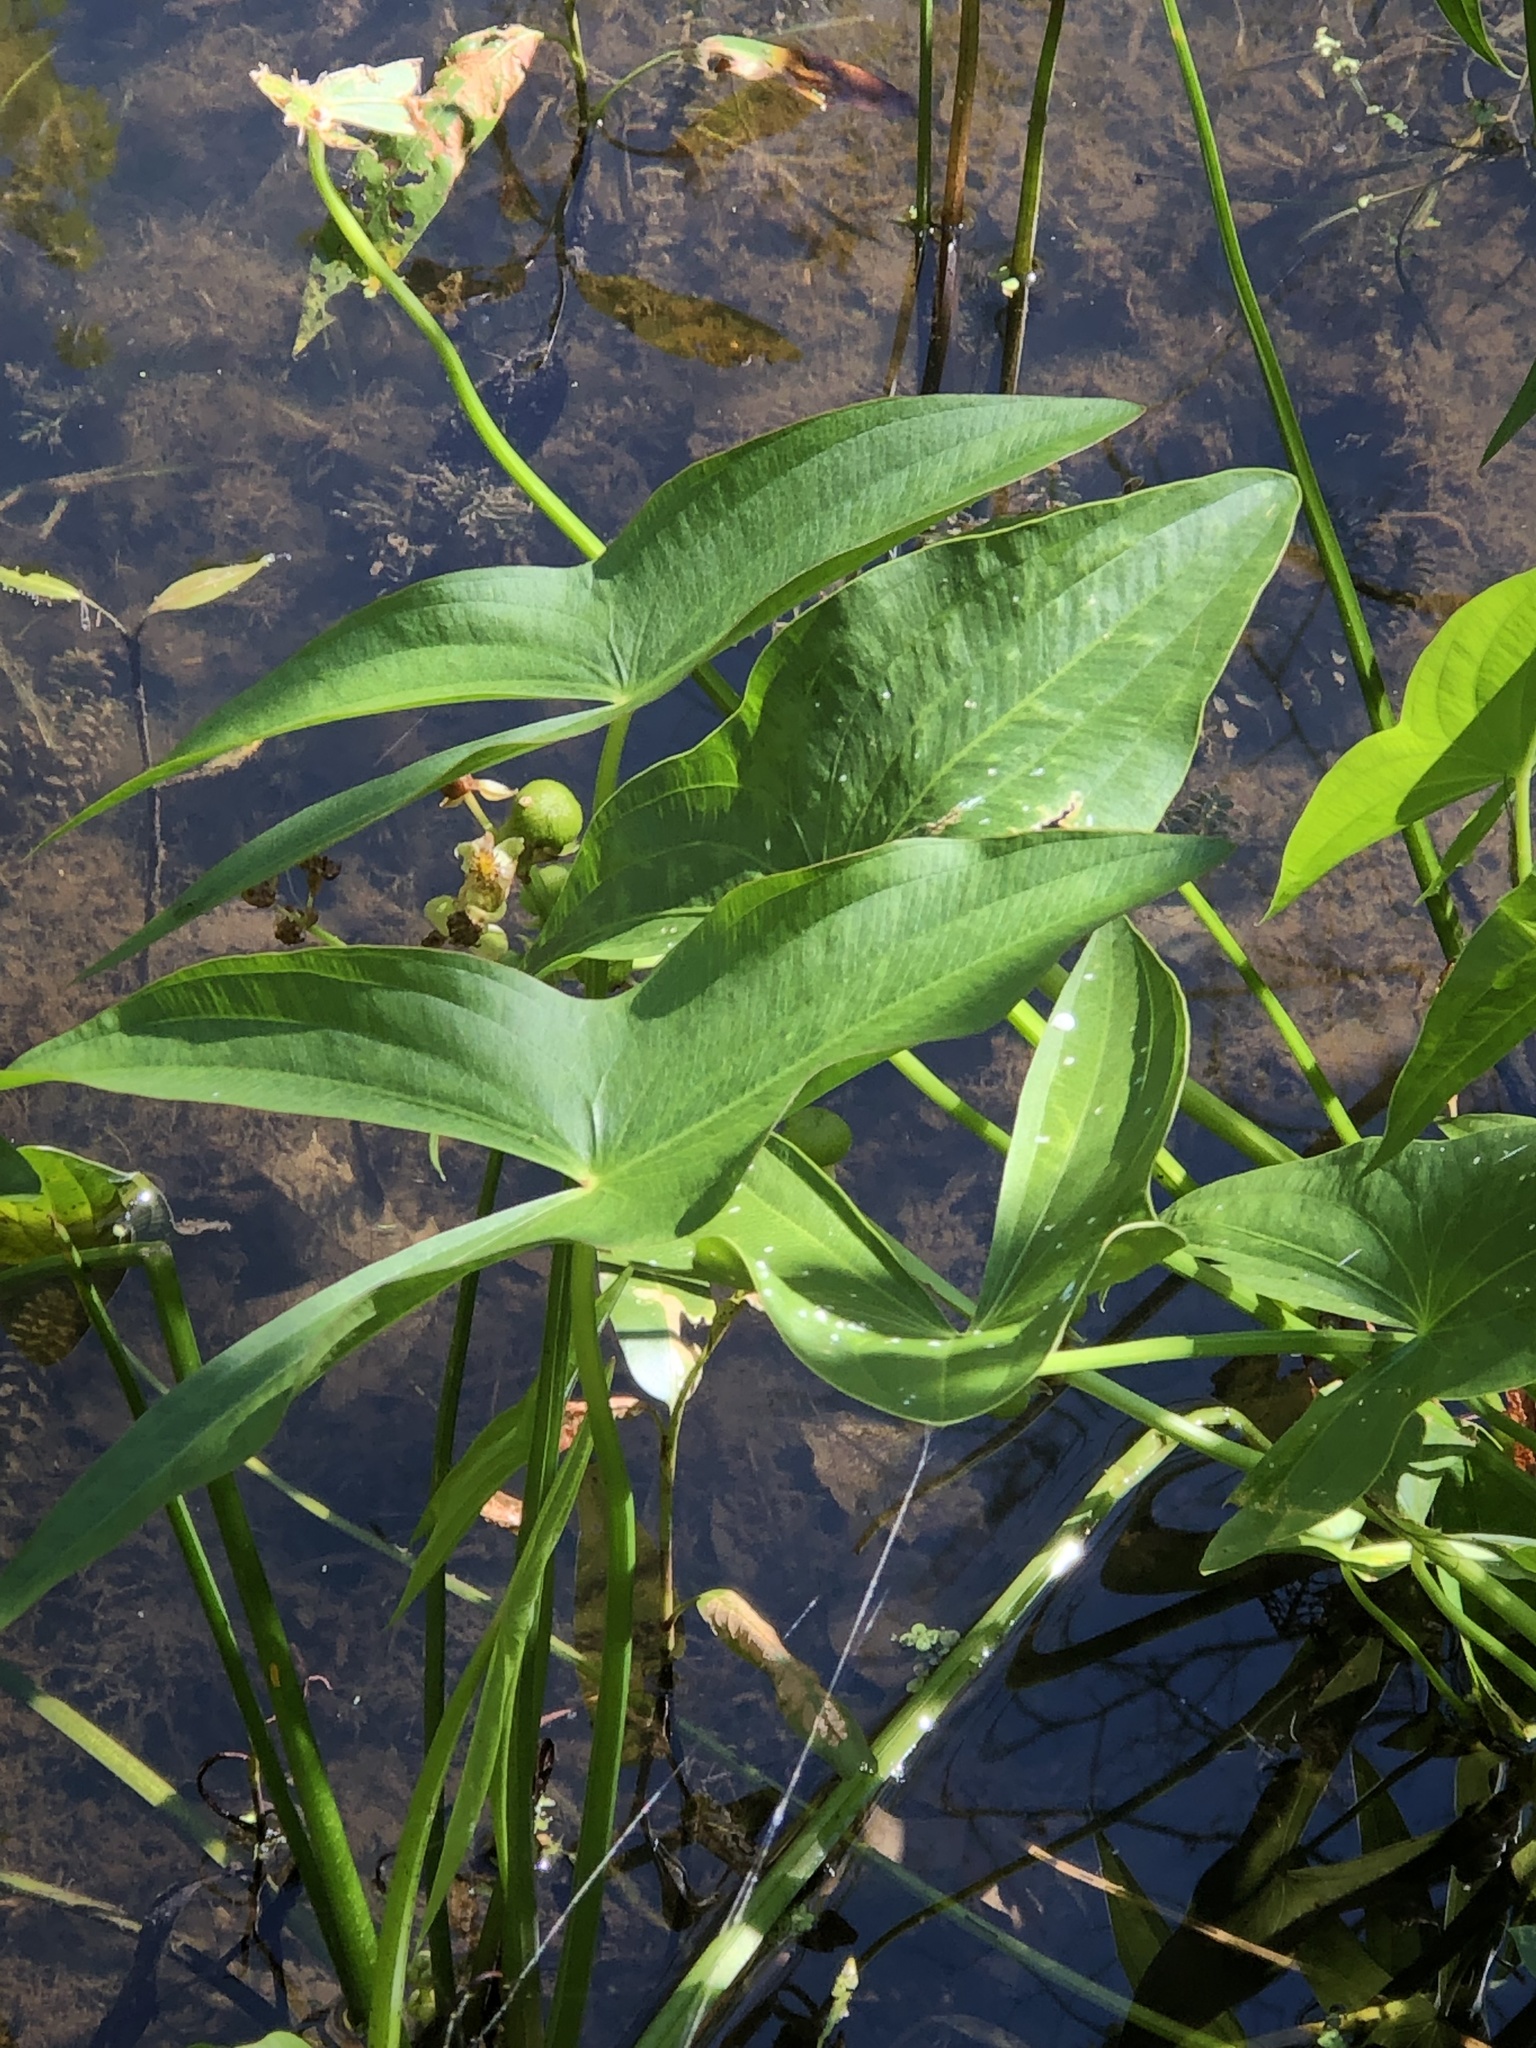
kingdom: Plantae
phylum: Tracheophyta
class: Liliopsida
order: Alismatales
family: Alismataceae
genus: Sagittaria
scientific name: Sagittaria latifolia
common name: Duck-potato
